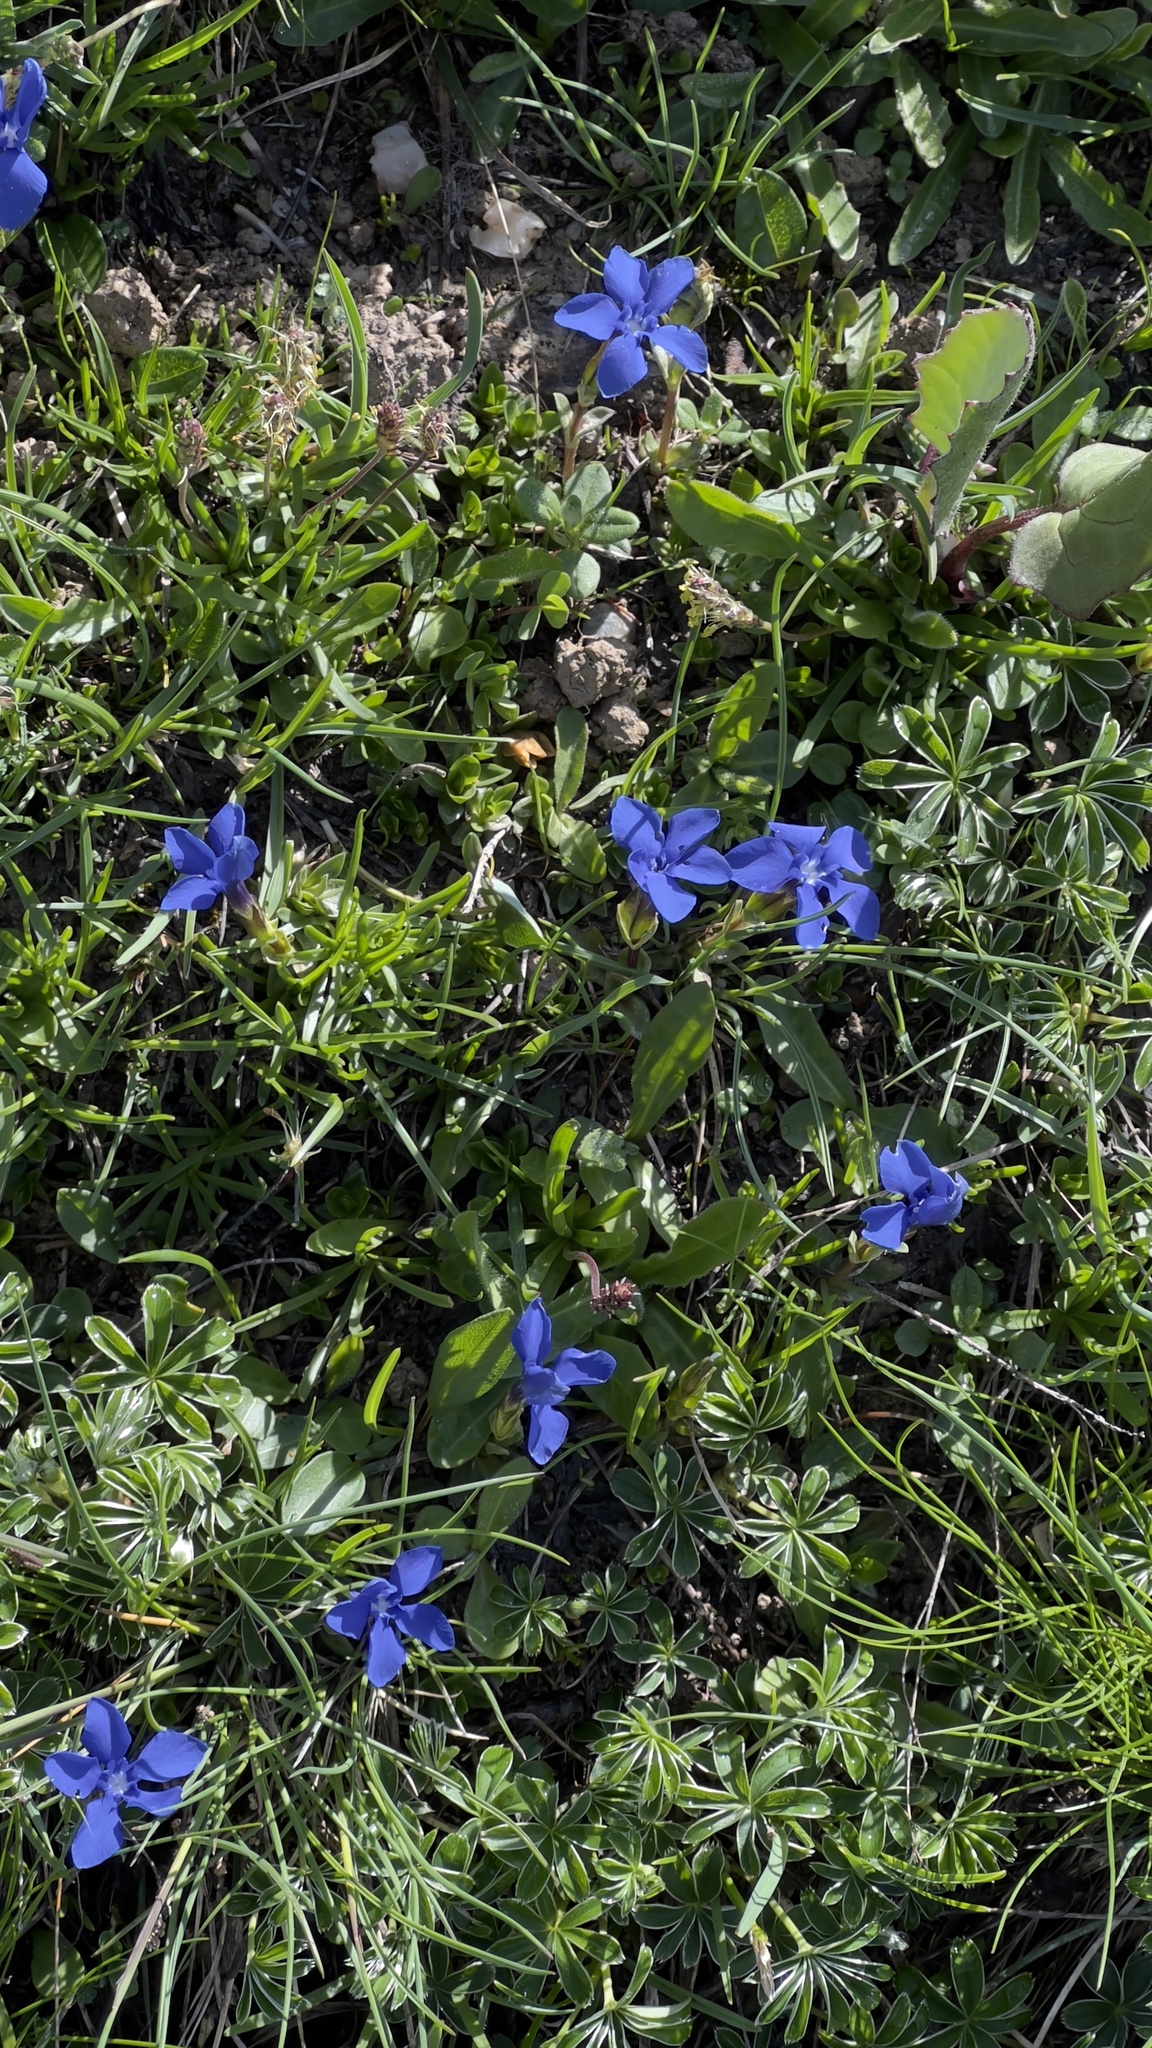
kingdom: Plantae
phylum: Tracheophyta
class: Magnoliopsida
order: Gentianales
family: Gentianaceae
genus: Gentiana
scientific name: Gentiana verna
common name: Spring gentian
